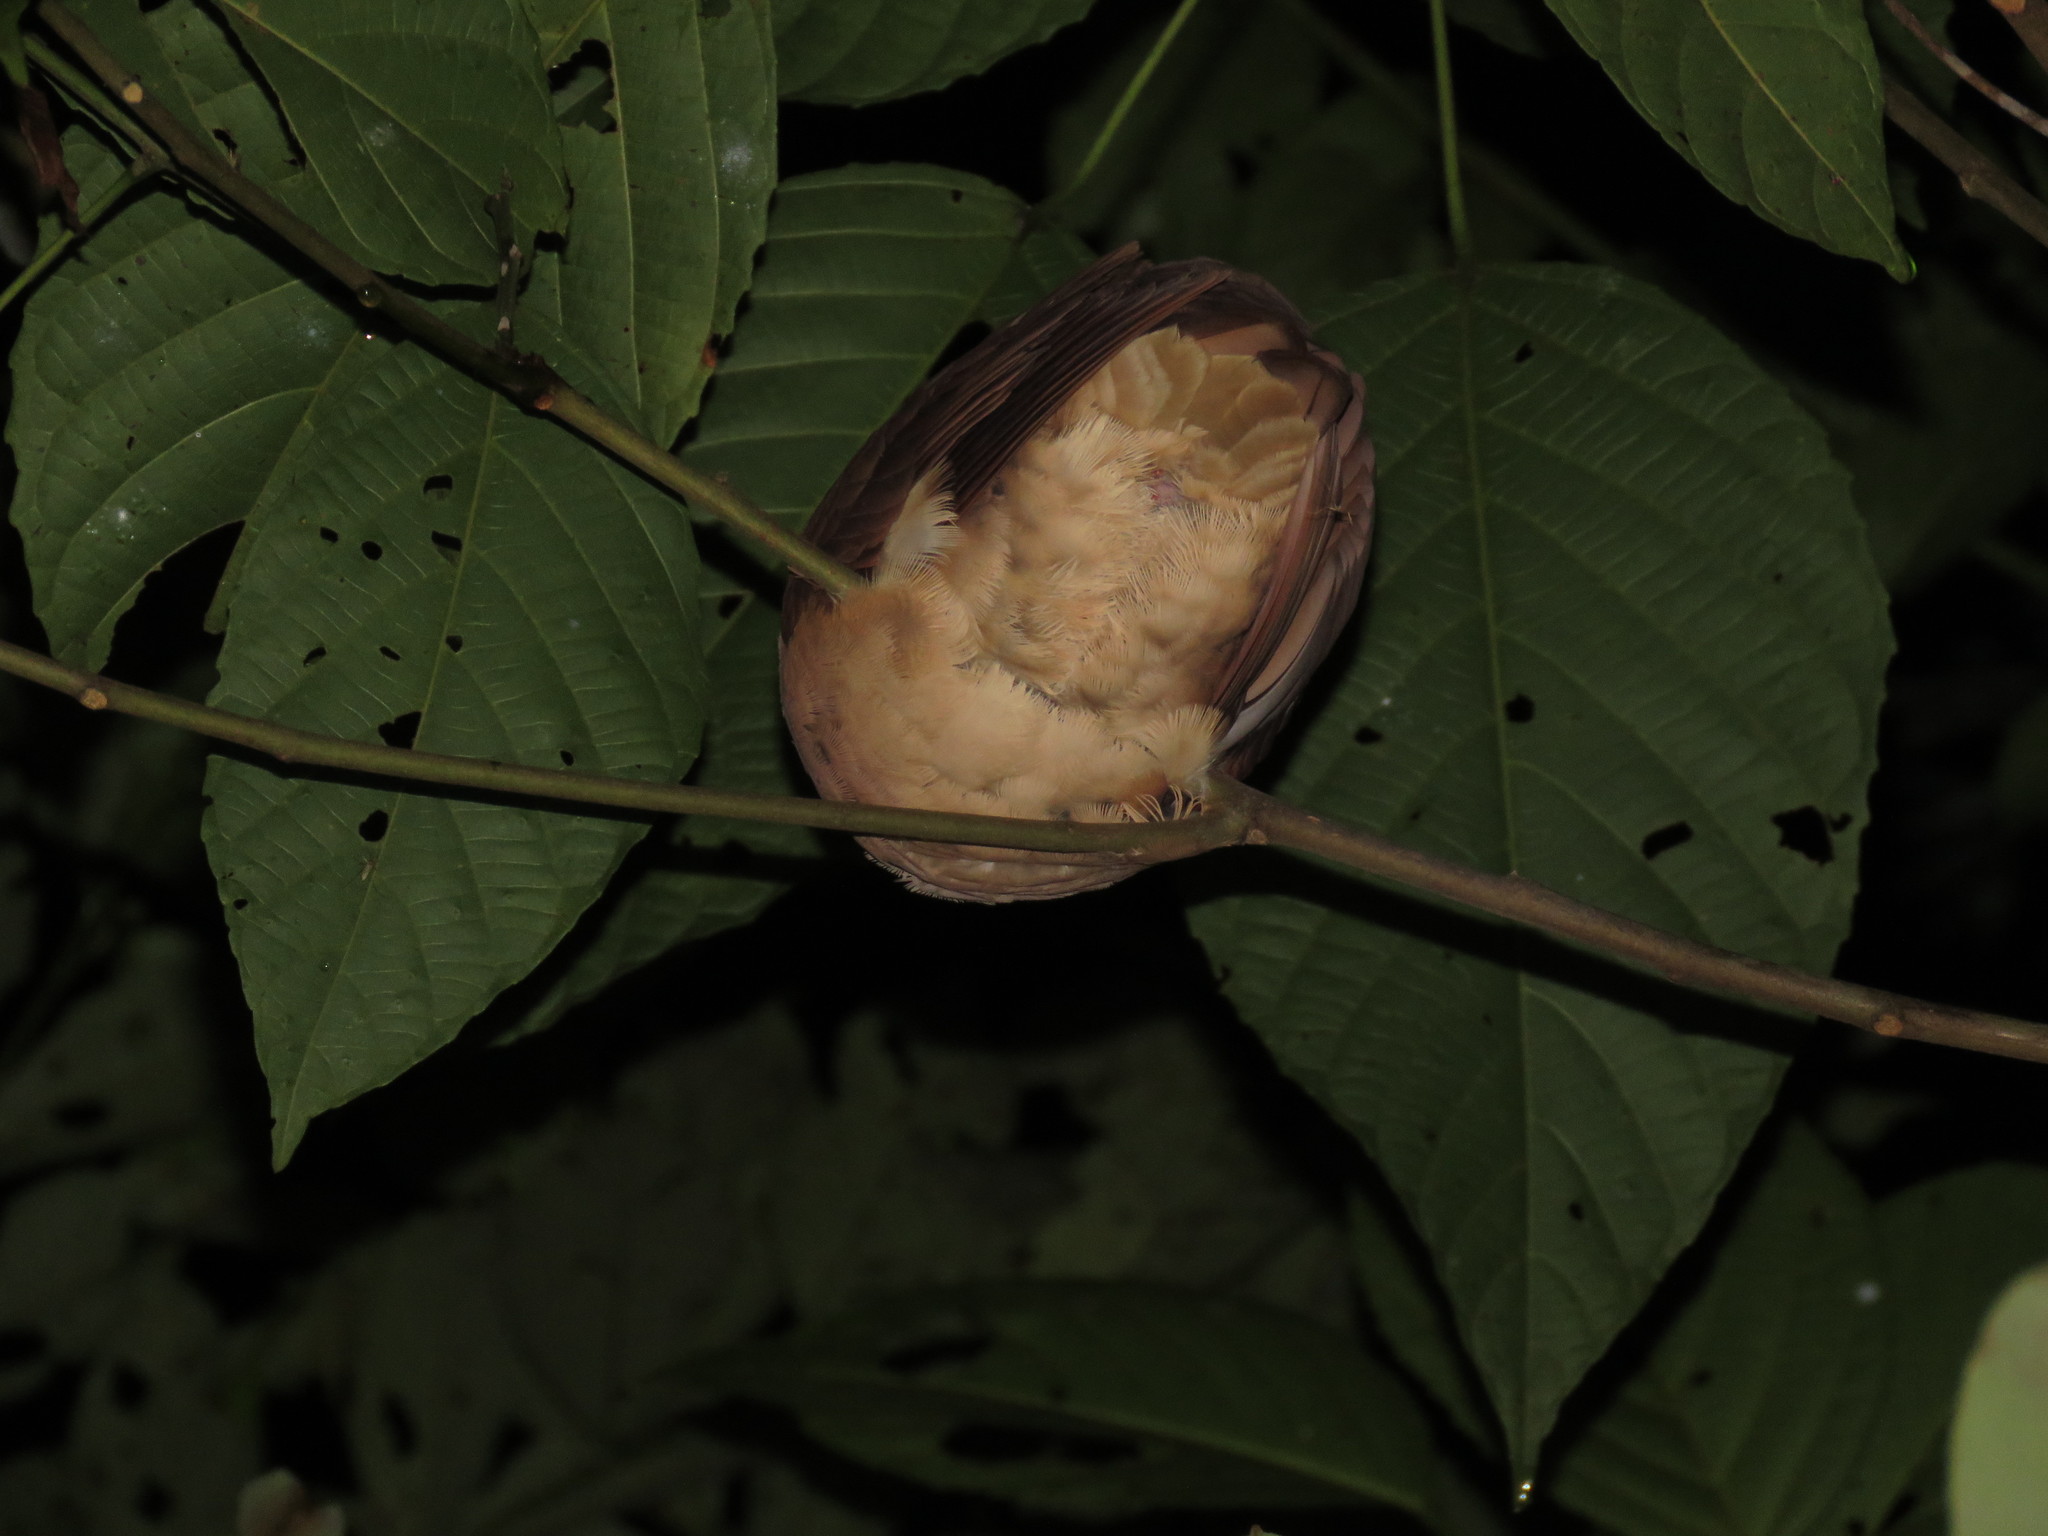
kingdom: Animalia
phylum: Chordata
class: Aves
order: Columbiformes
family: Columbidae
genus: Geotrygon
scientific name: Geotrygon montana
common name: Ruddy quail-dove
